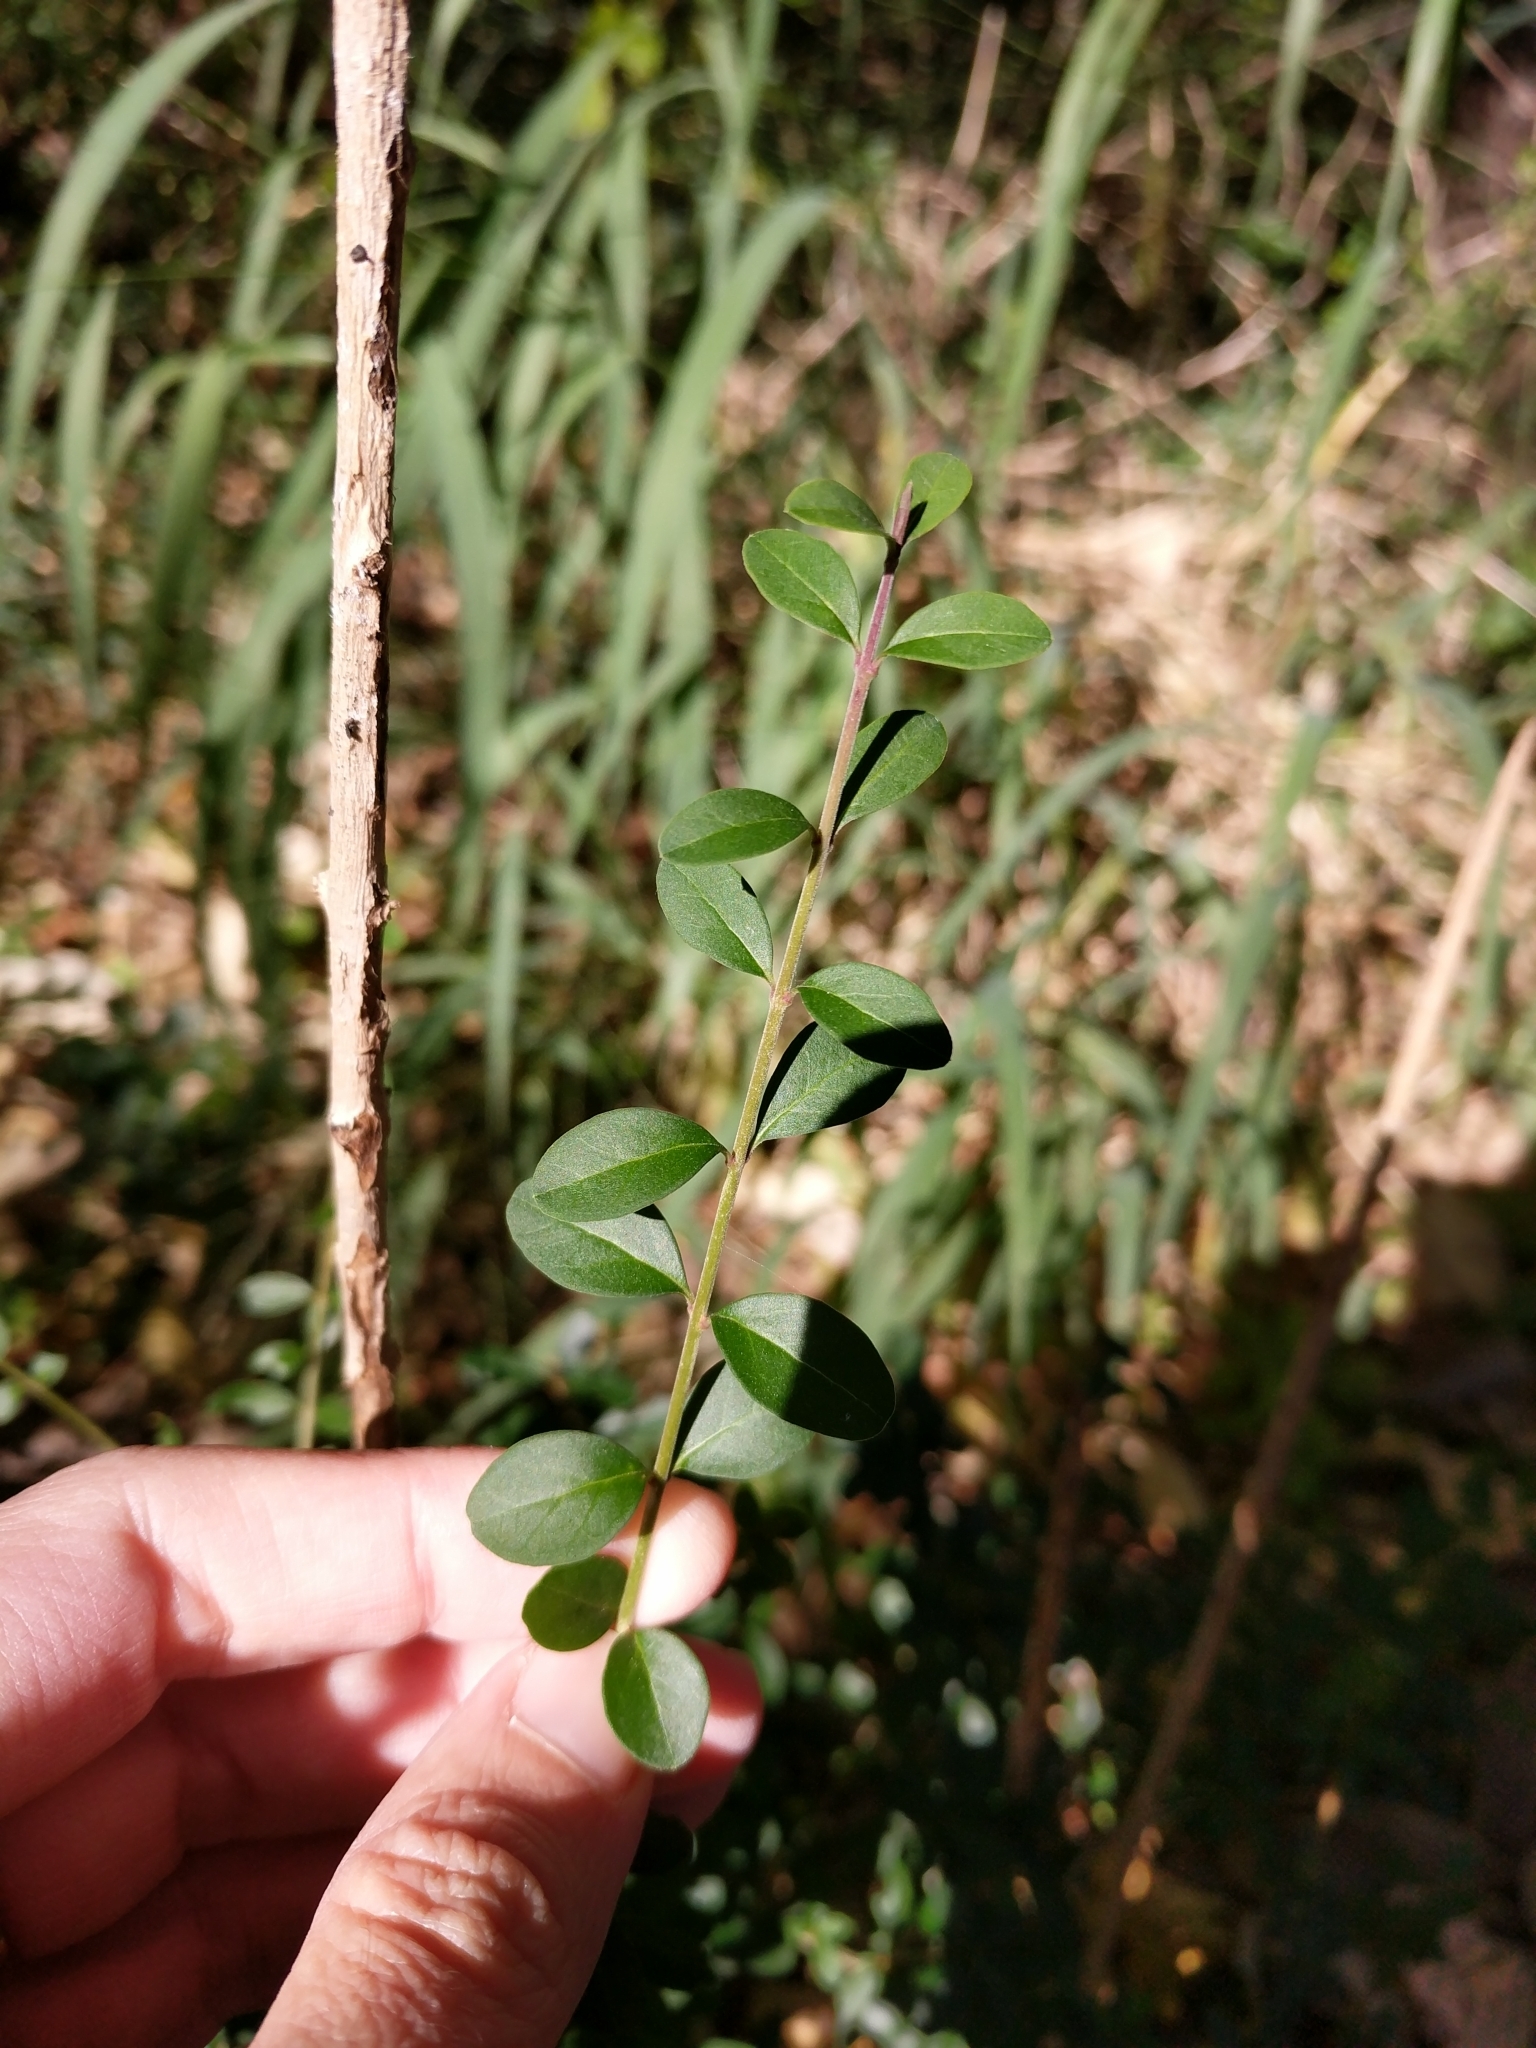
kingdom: Plantae
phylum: Tracheophyta
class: Magnoliopsida
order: Lamiales
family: Oleaceae
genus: Ligustrum
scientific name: Ligustrum quihoui
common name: Waxyleaf privet
